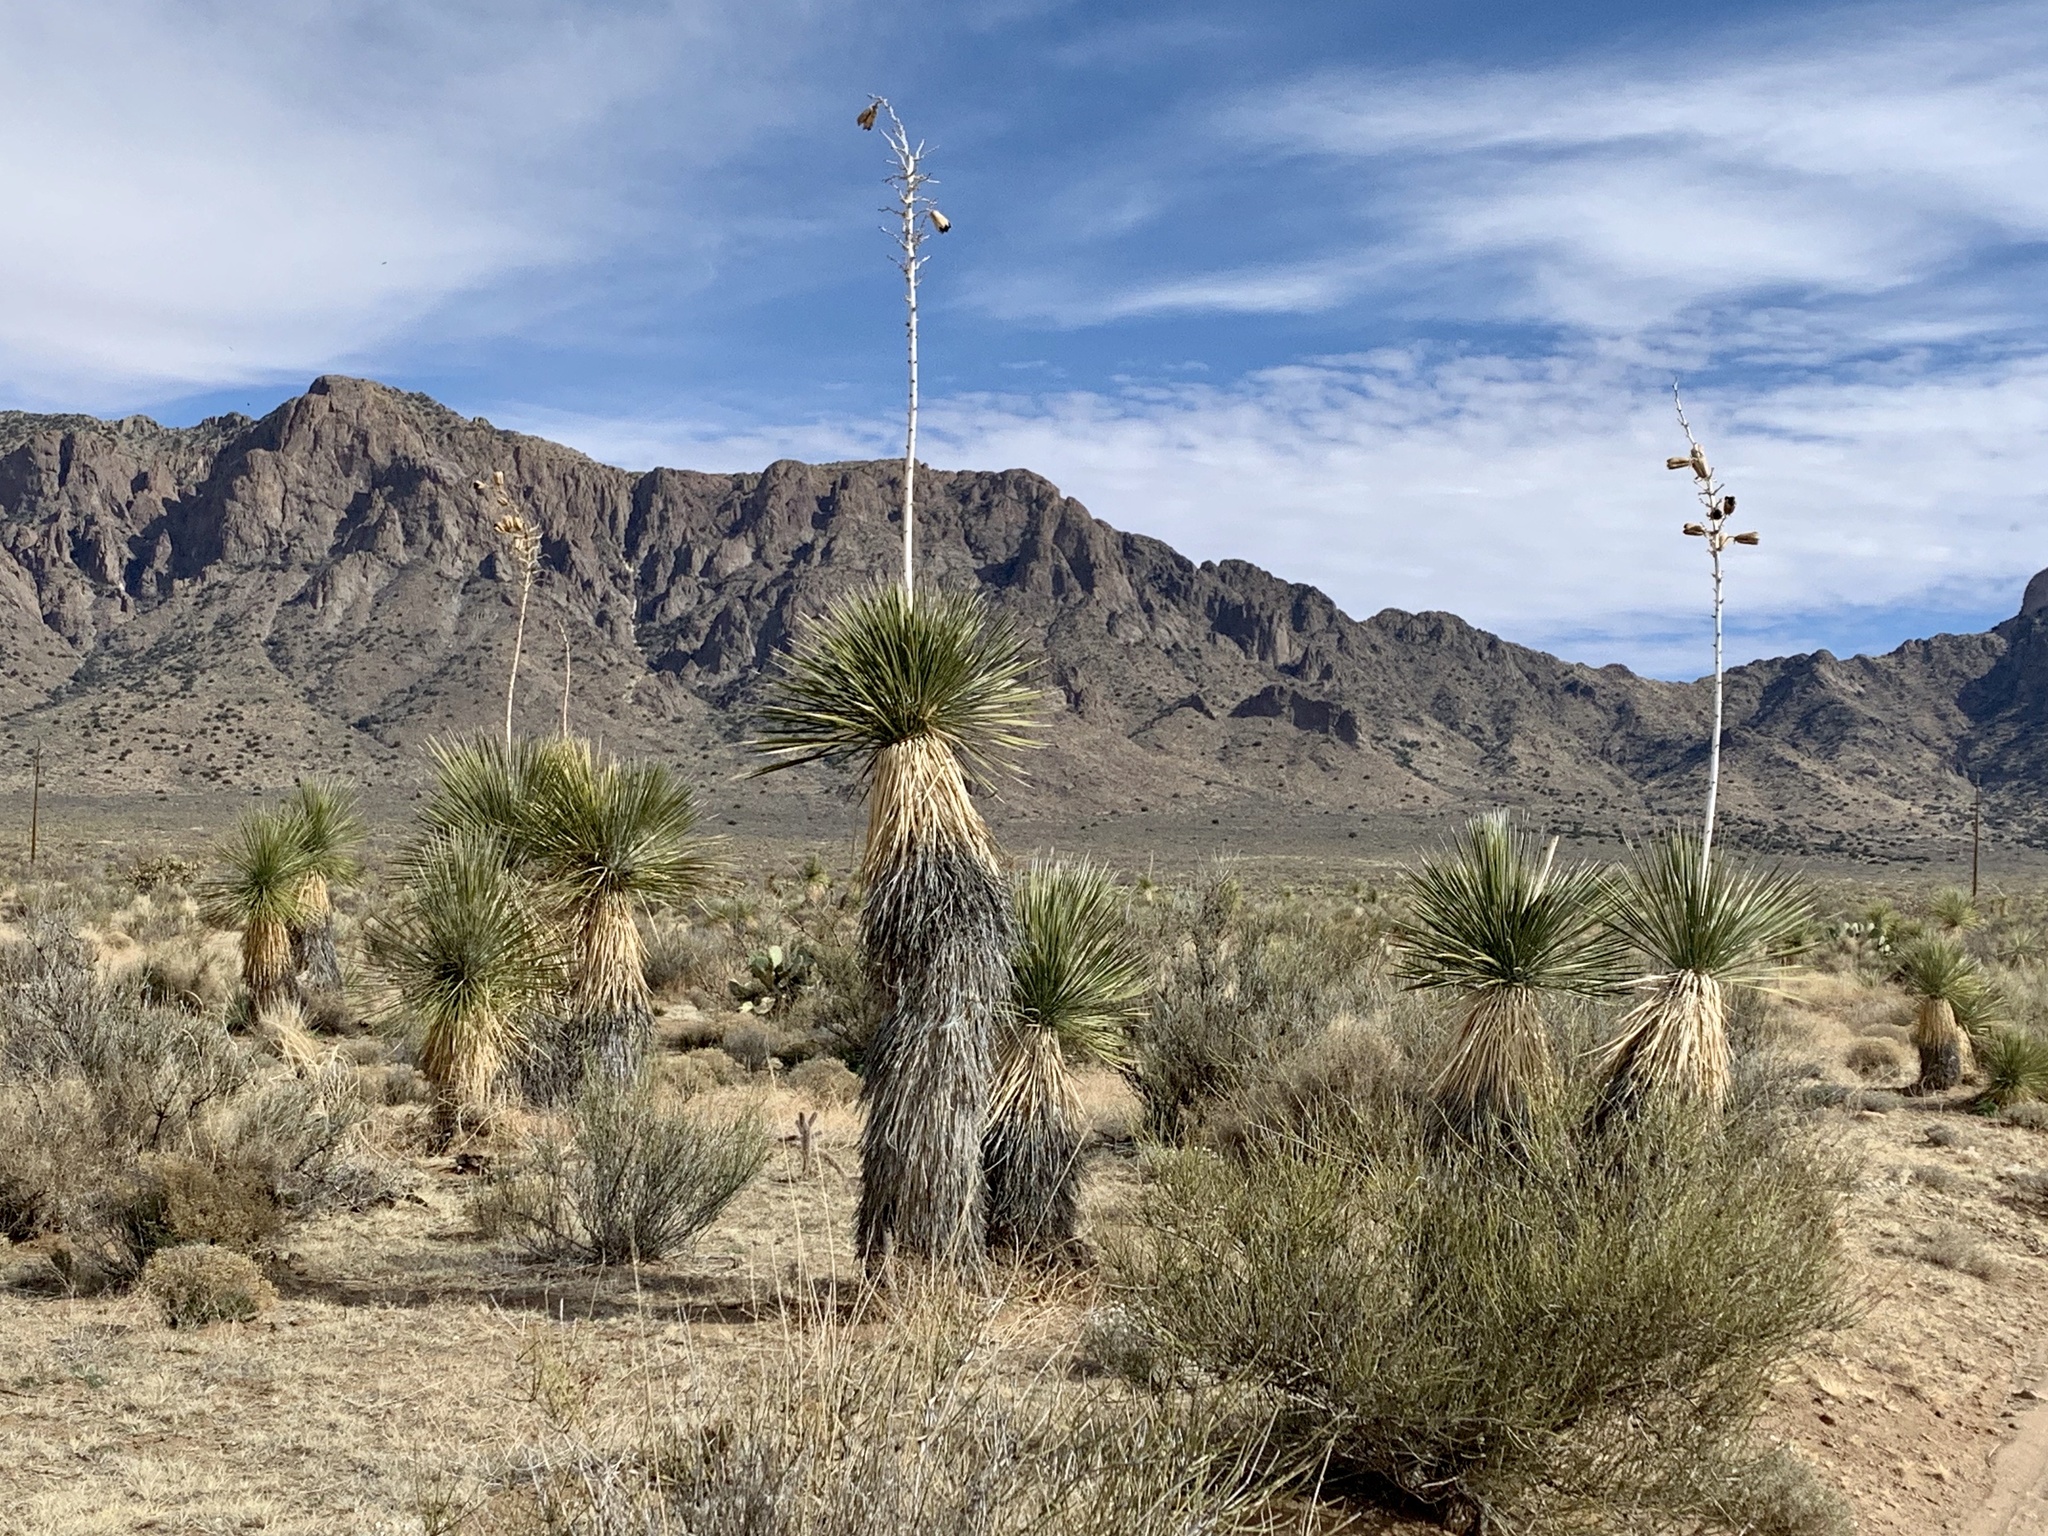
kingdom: Plantae
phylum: Tracheophyta
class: Liliopsida
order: Asparagales
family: Asparagaceae
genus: Yucca
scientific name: Yucca elata
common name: Palmella
